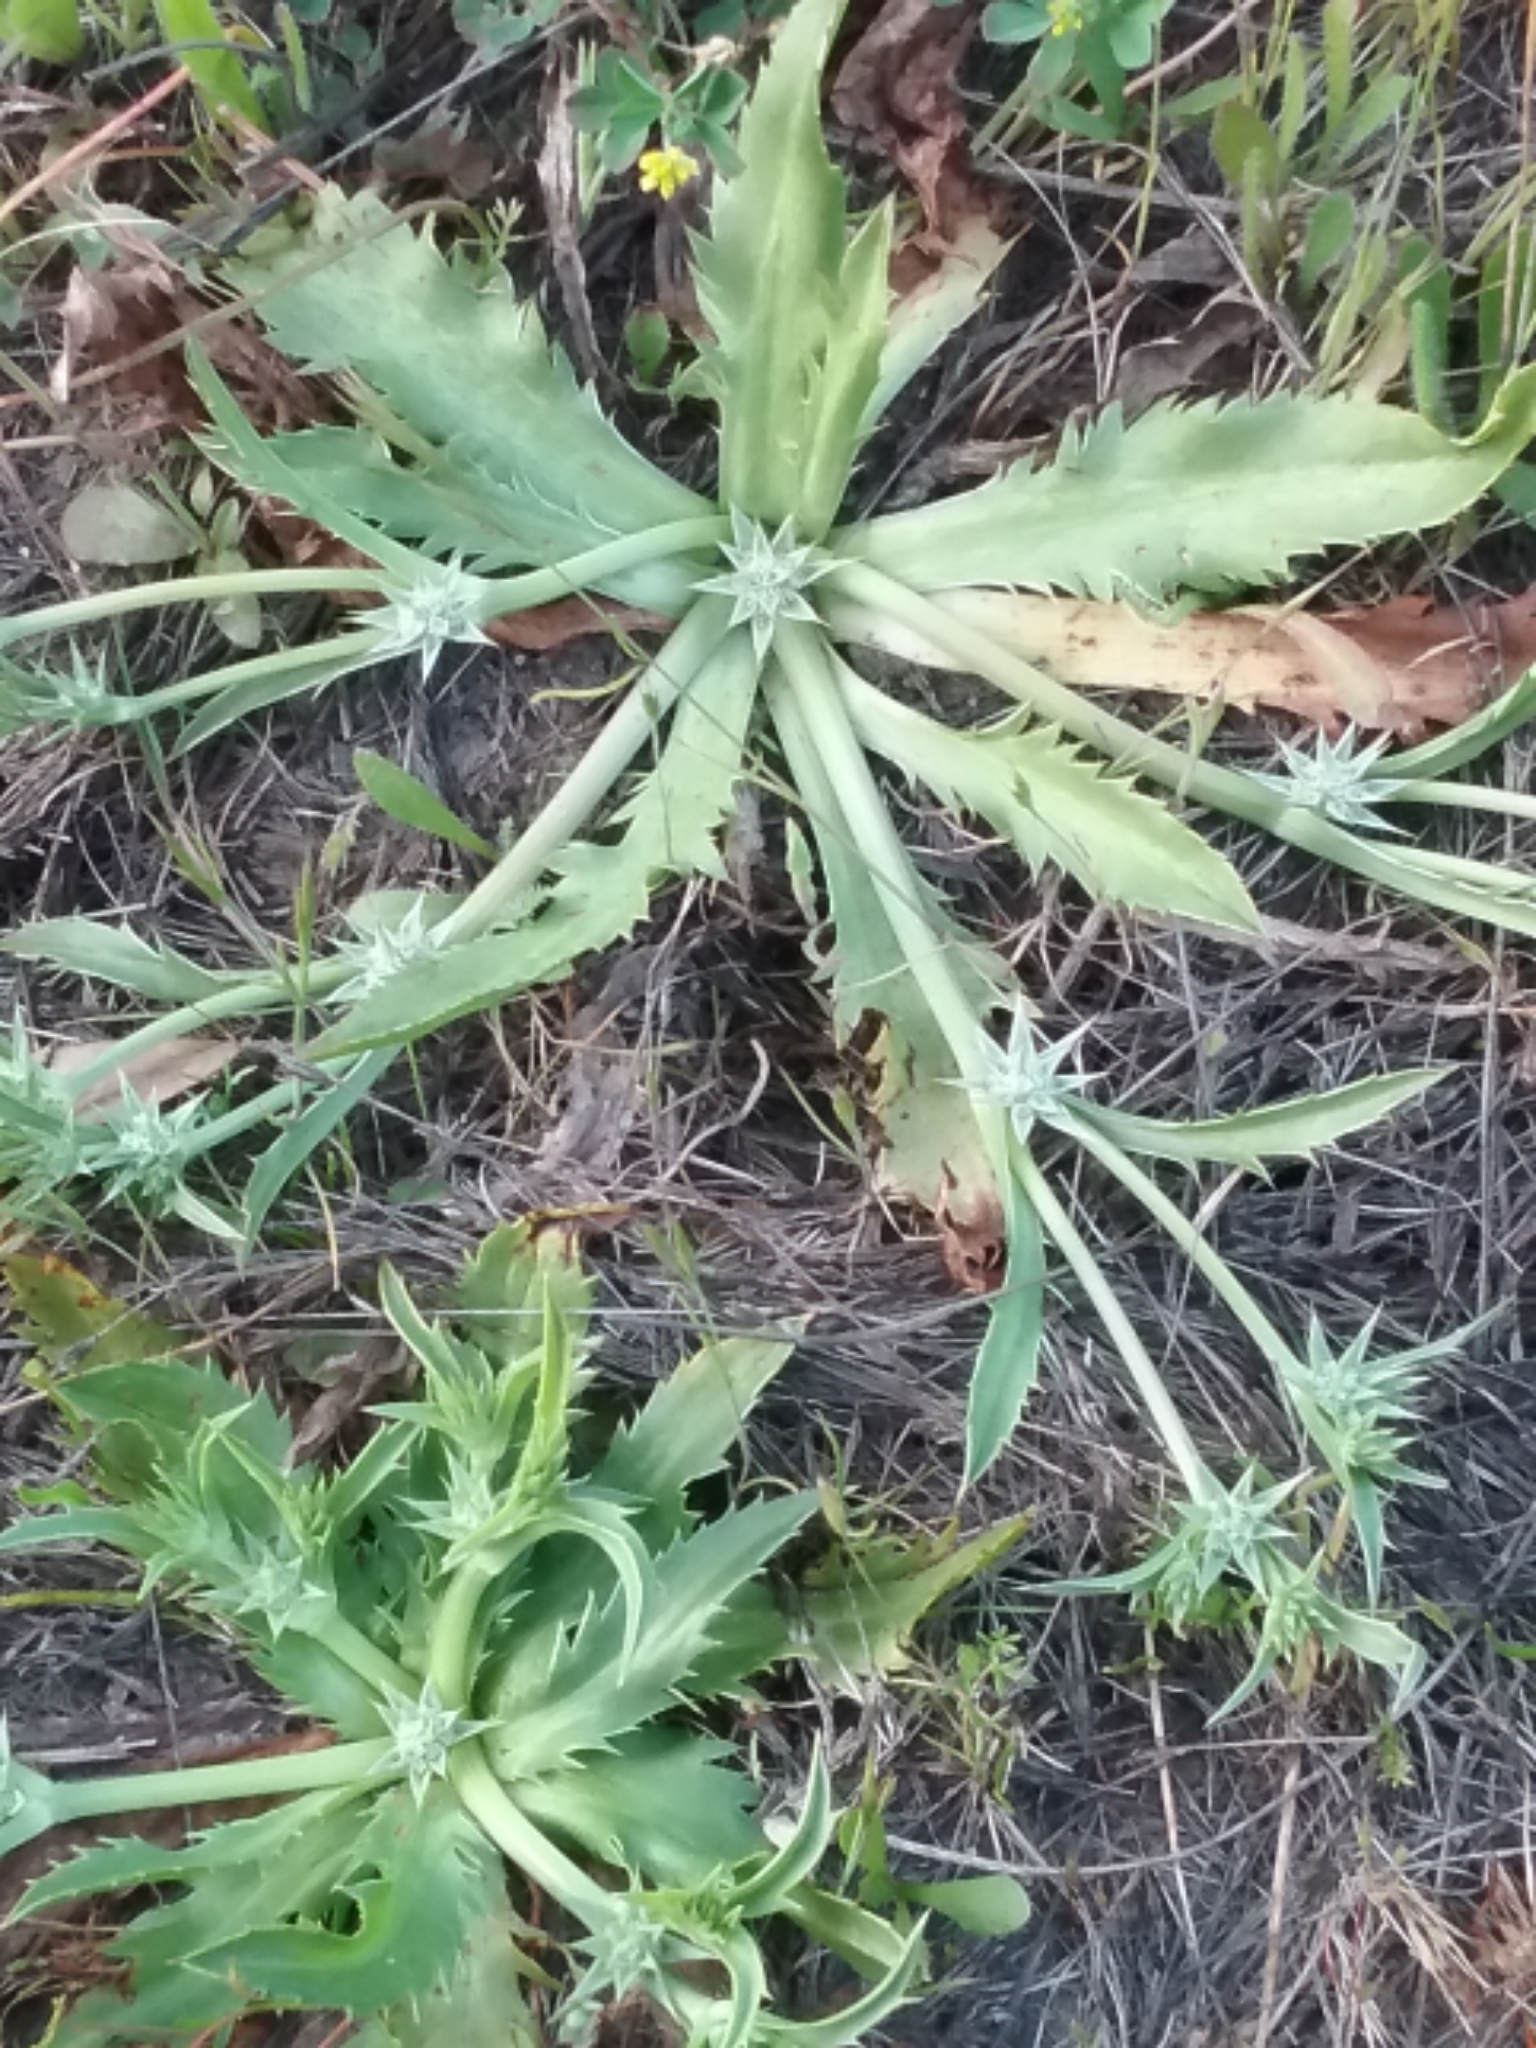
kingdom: Plantae
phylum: Tracheophyta
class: Magnoliopsida
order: Apiales
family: Apiaceae
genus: Eryngium
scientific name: Eryngium armatum
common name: Coyote thistle
